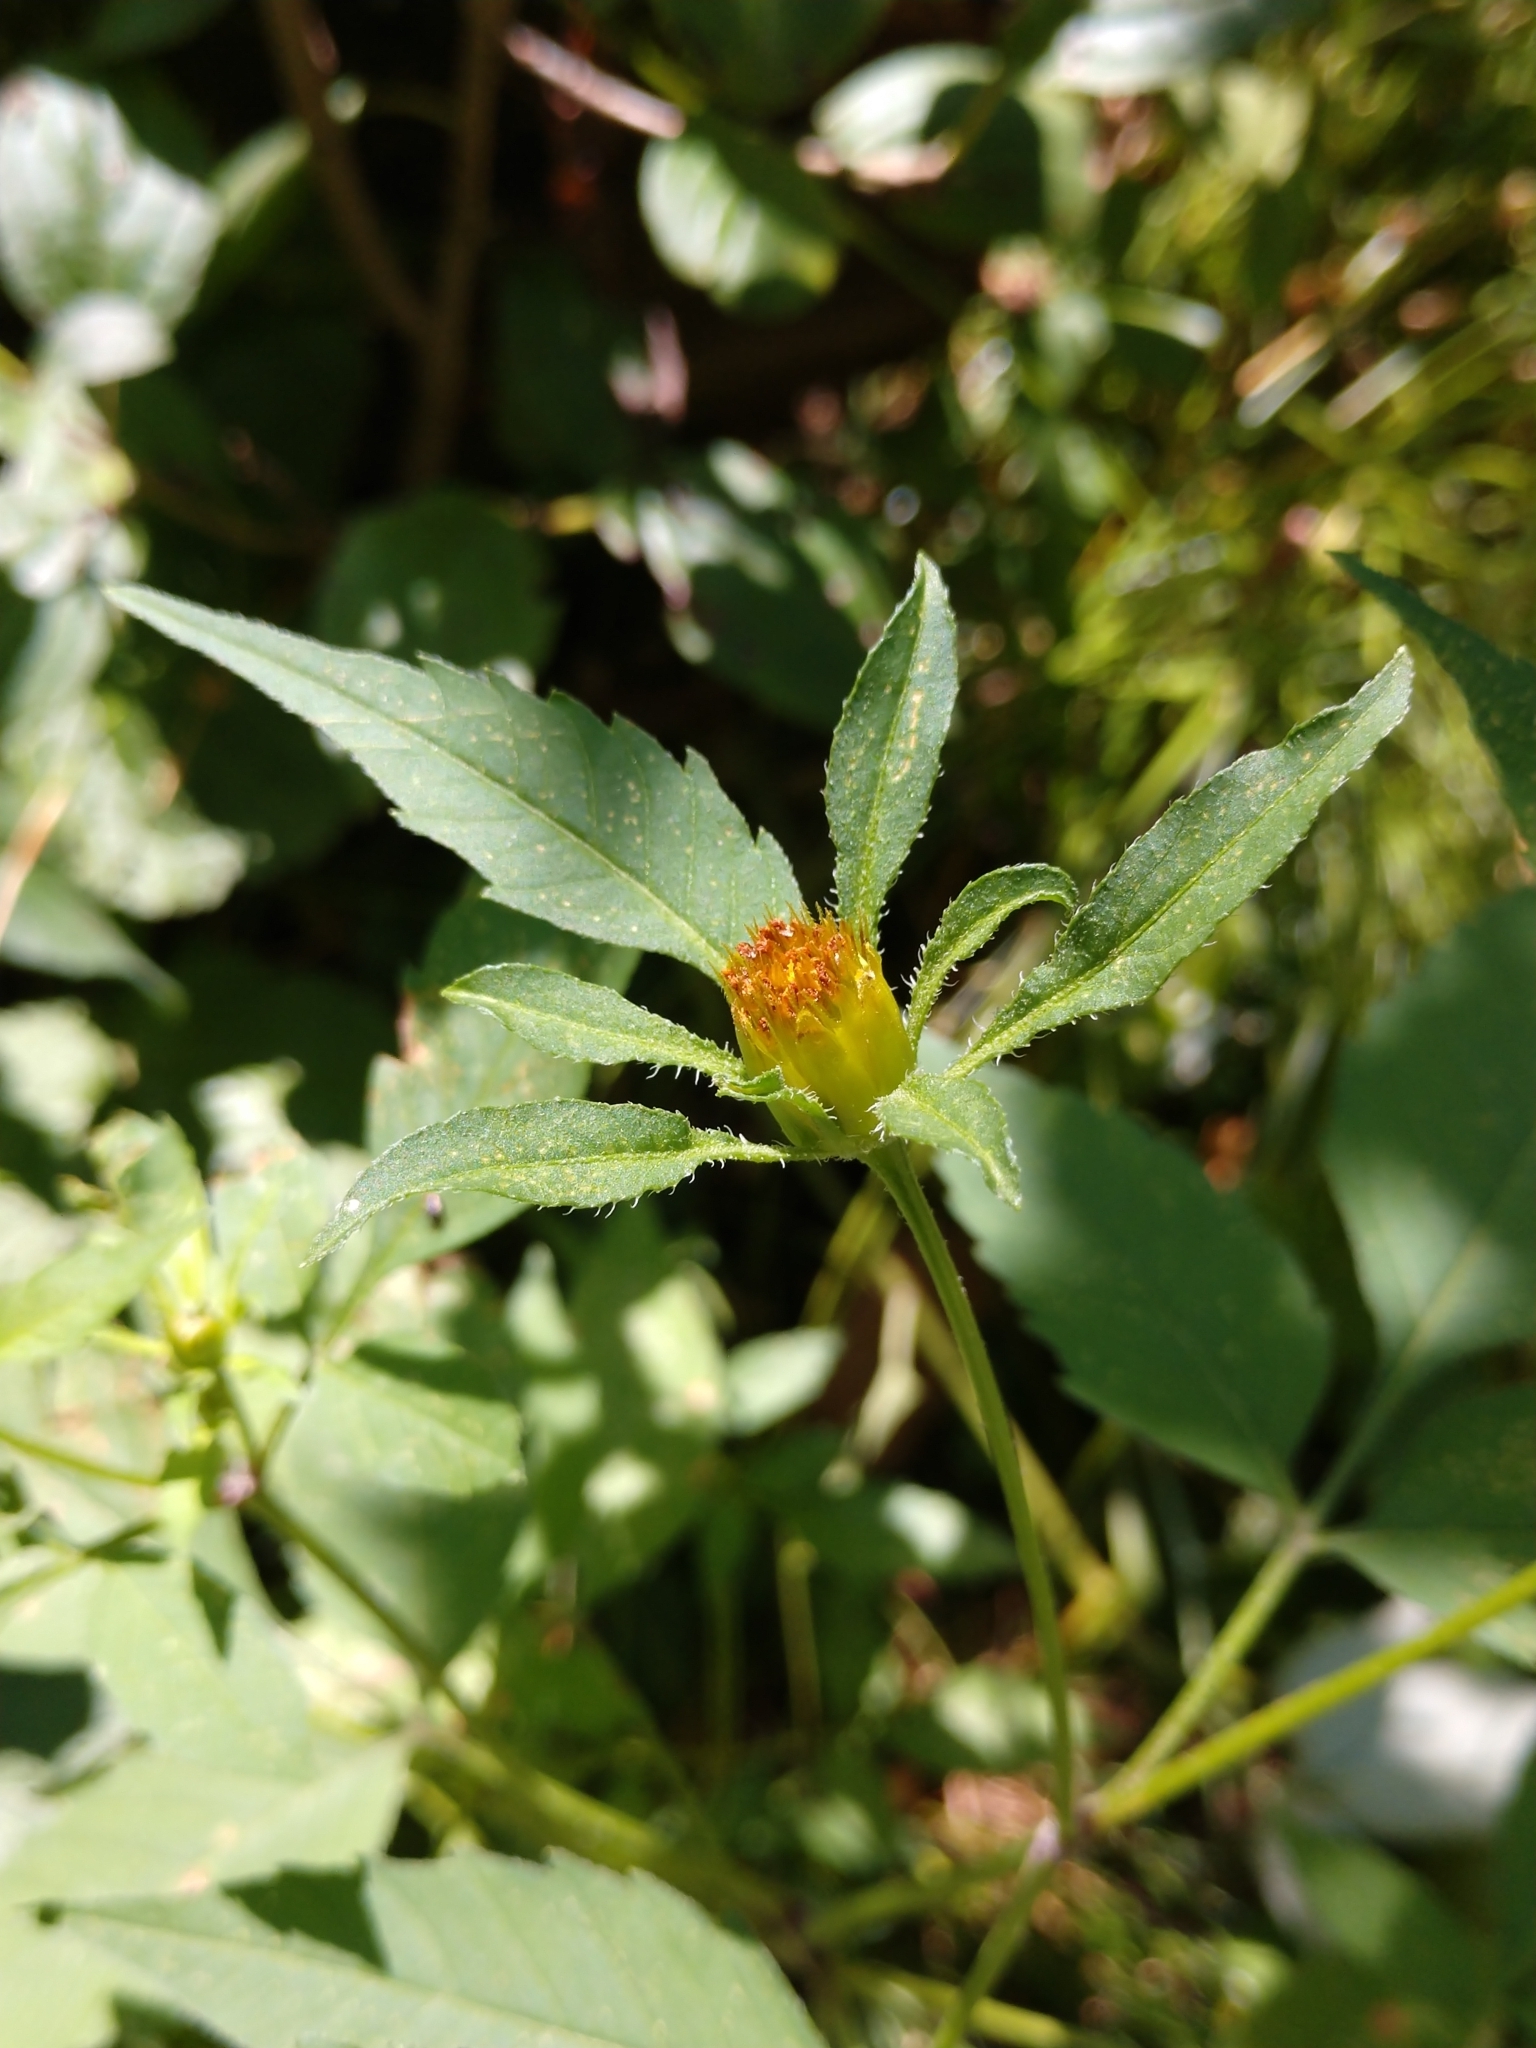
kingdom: Plantae
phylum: Tracheophyta
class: Magnoliopsida
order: Asterales
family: Asteraceae
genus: Bidens
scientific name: Bidens frondosa
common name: Beggarticks
